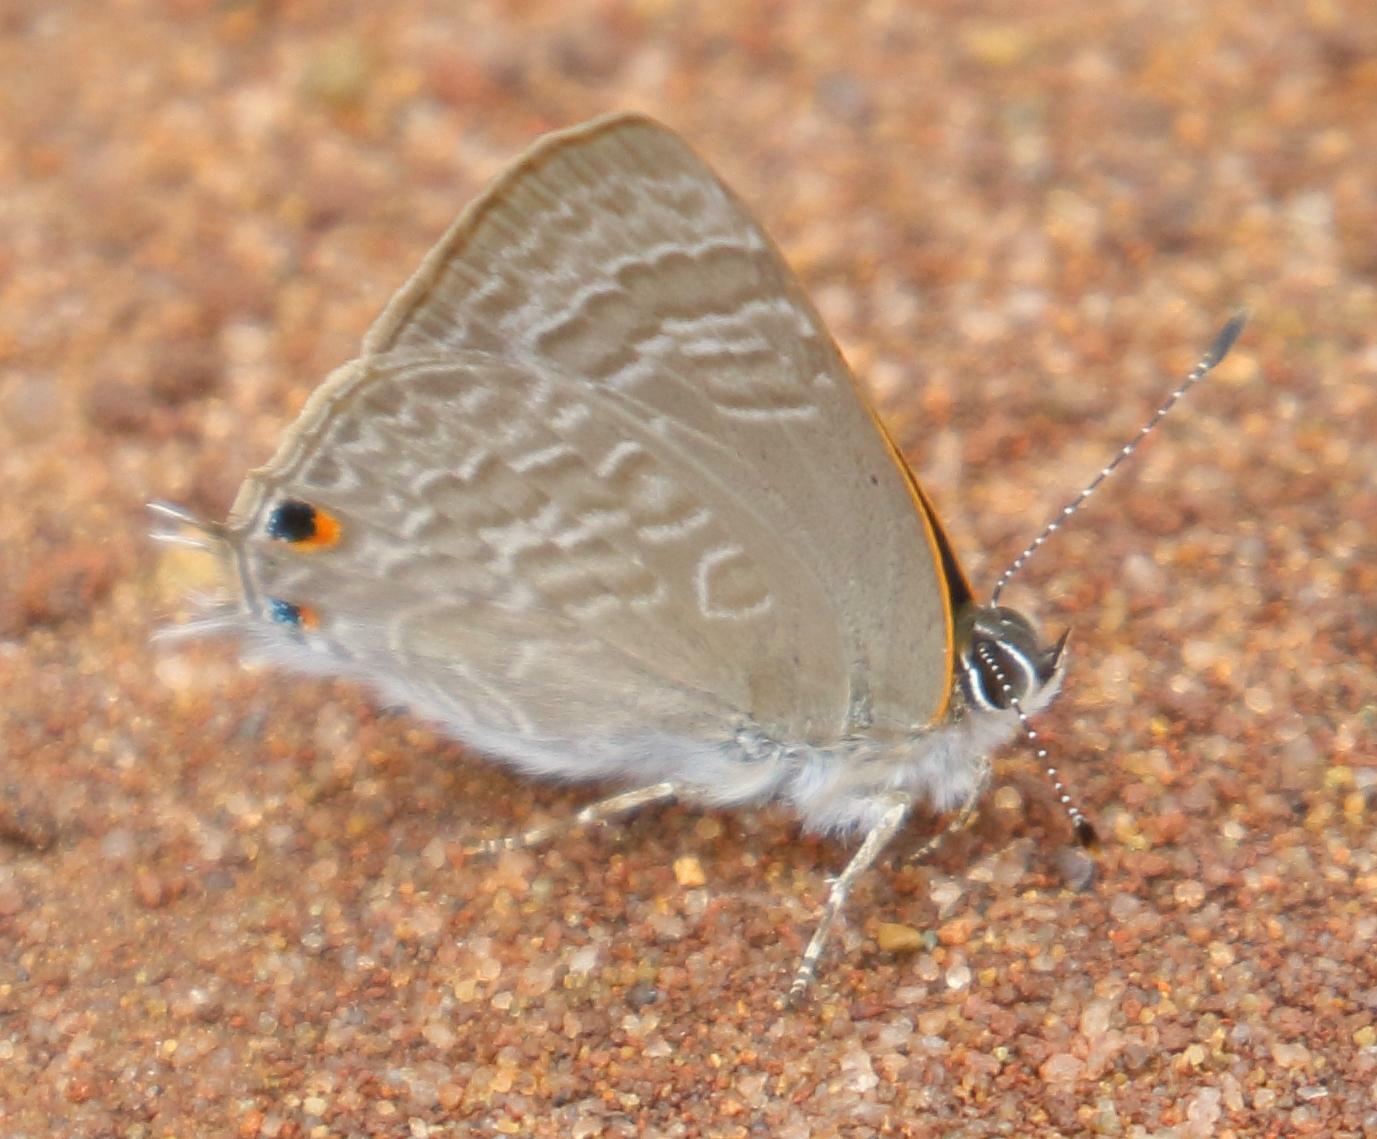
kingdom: Animalia
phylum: Arthropoda
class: Insecta
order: Lepidoptera
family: Lycaenidae
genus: Anthene
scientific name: Anthene definita
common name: Common ciliate blue
